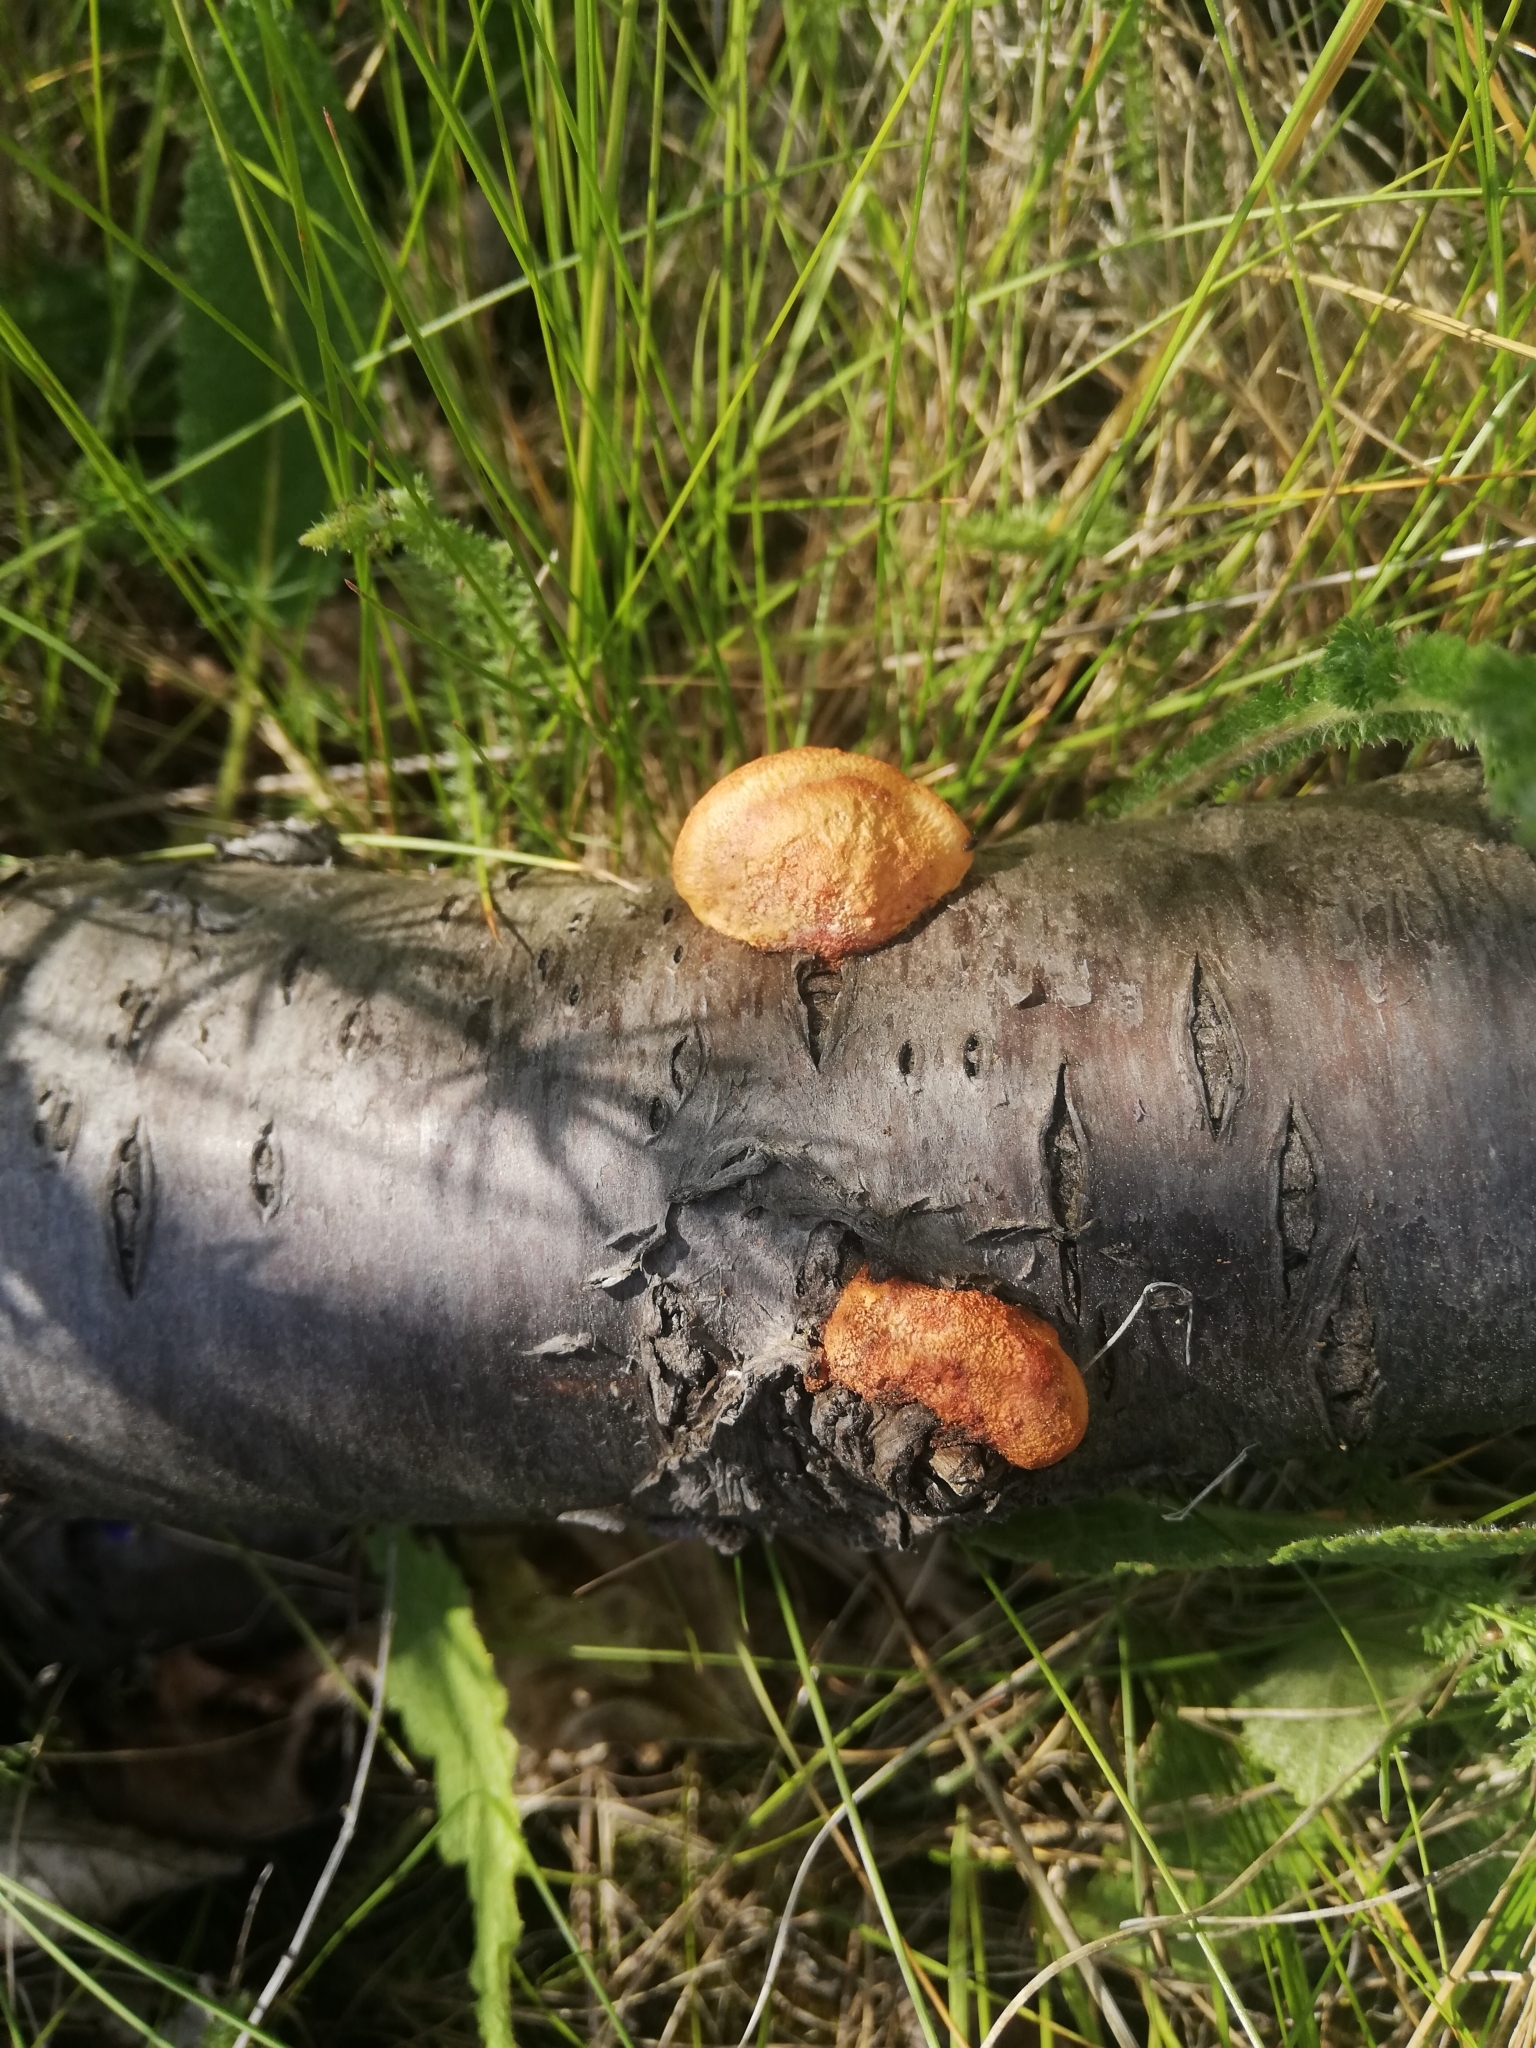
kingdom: Fungi
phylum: Basidiomycota
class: Agaricomycetes
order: Polyporales
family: Polyporaceae
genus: Trametes
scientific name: Trametes cinnabarina
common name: Northern cinnabar polypore
